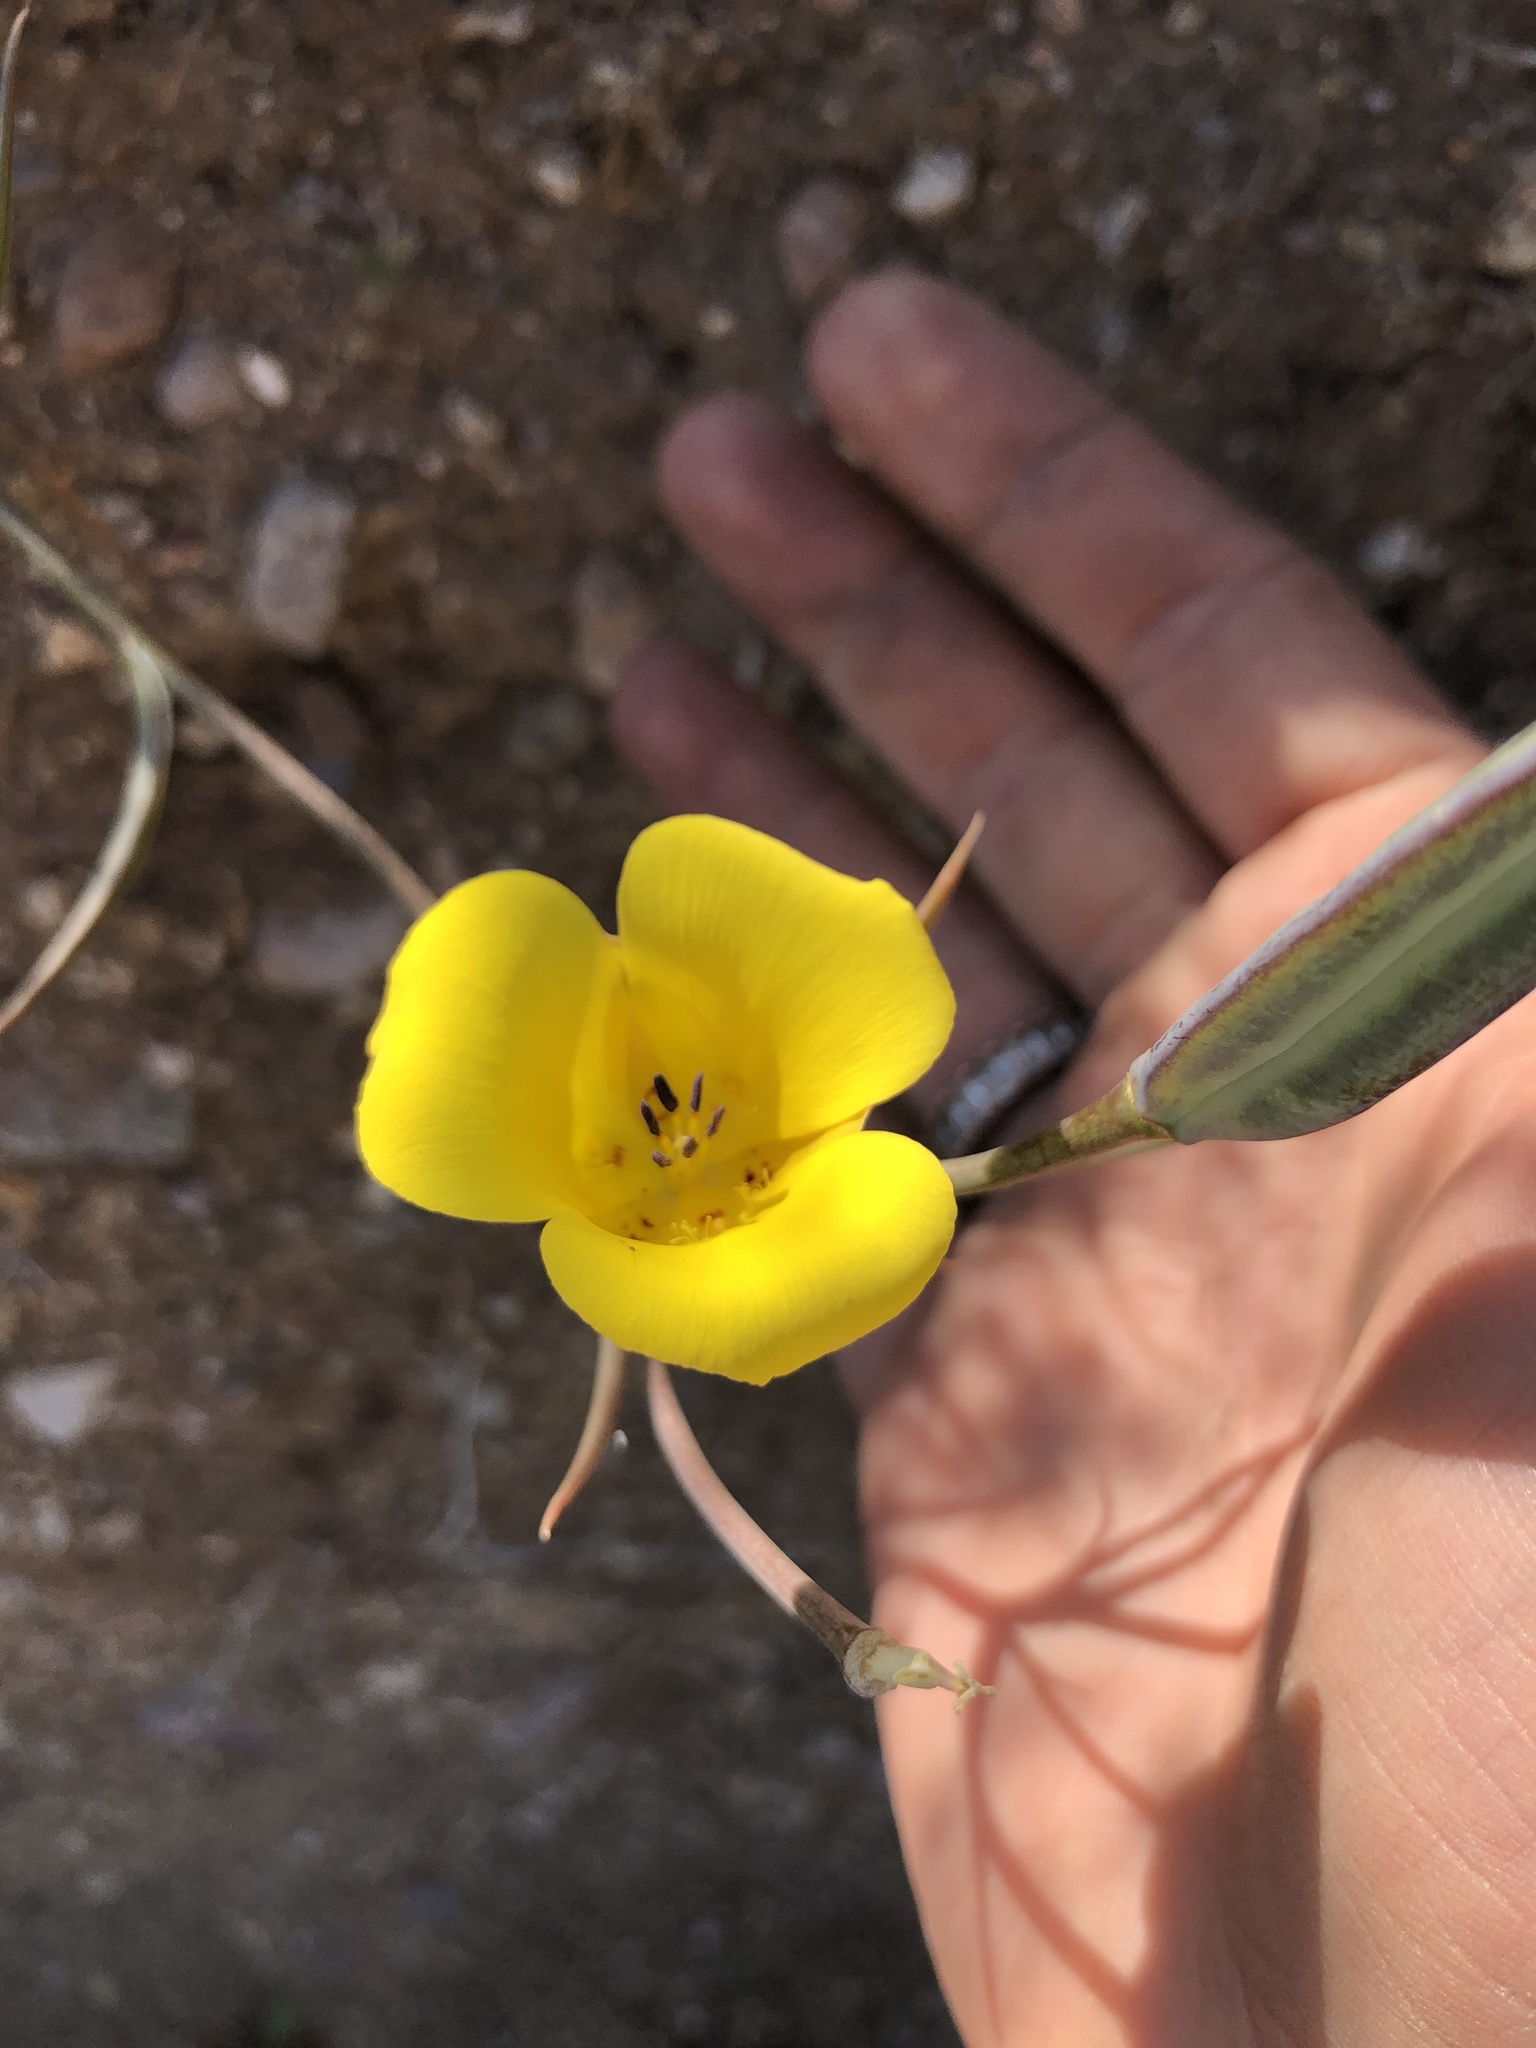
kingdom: Plantae
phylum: Tracheophyta
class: Liliopsida
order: Liliales
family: Liliaceae
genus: Calochortus
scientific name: Calochortus clavatus
